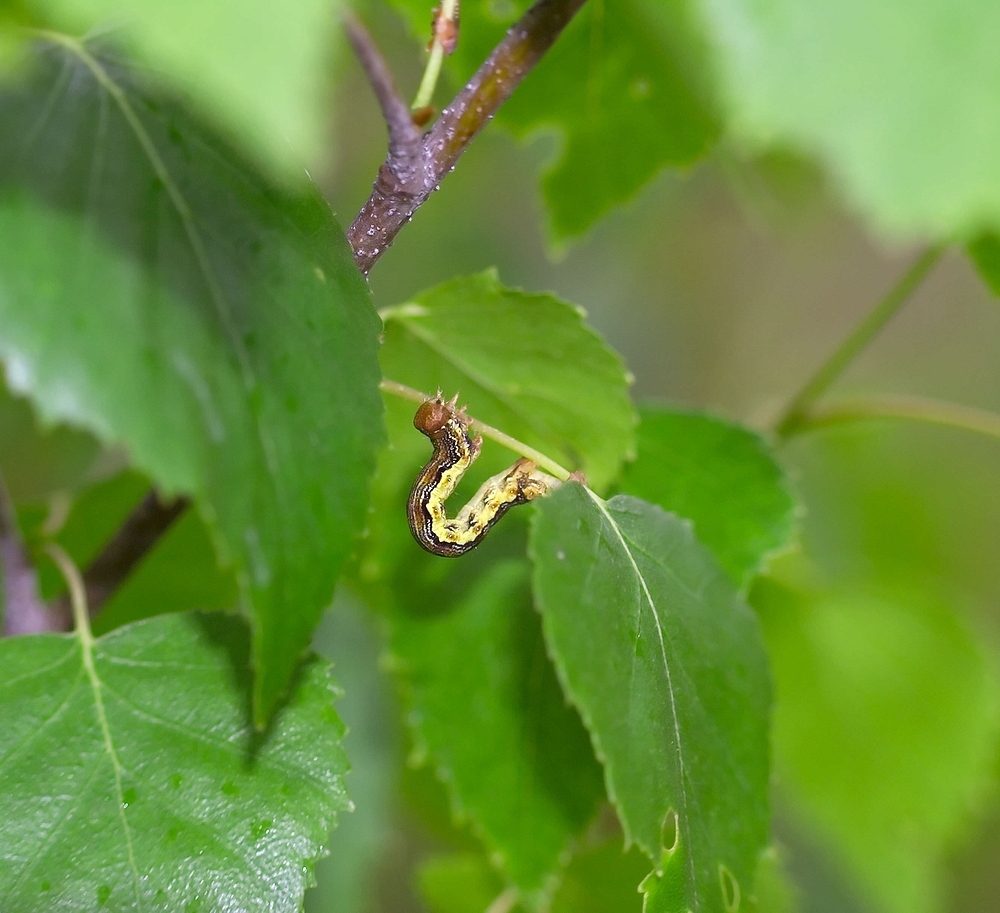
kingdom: Animalia
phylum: Arthropoda
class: Insecta
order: Lepidoptera
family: Geometridae
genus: Erannis
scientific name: Erannis defoliaria
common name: Mottled umber
